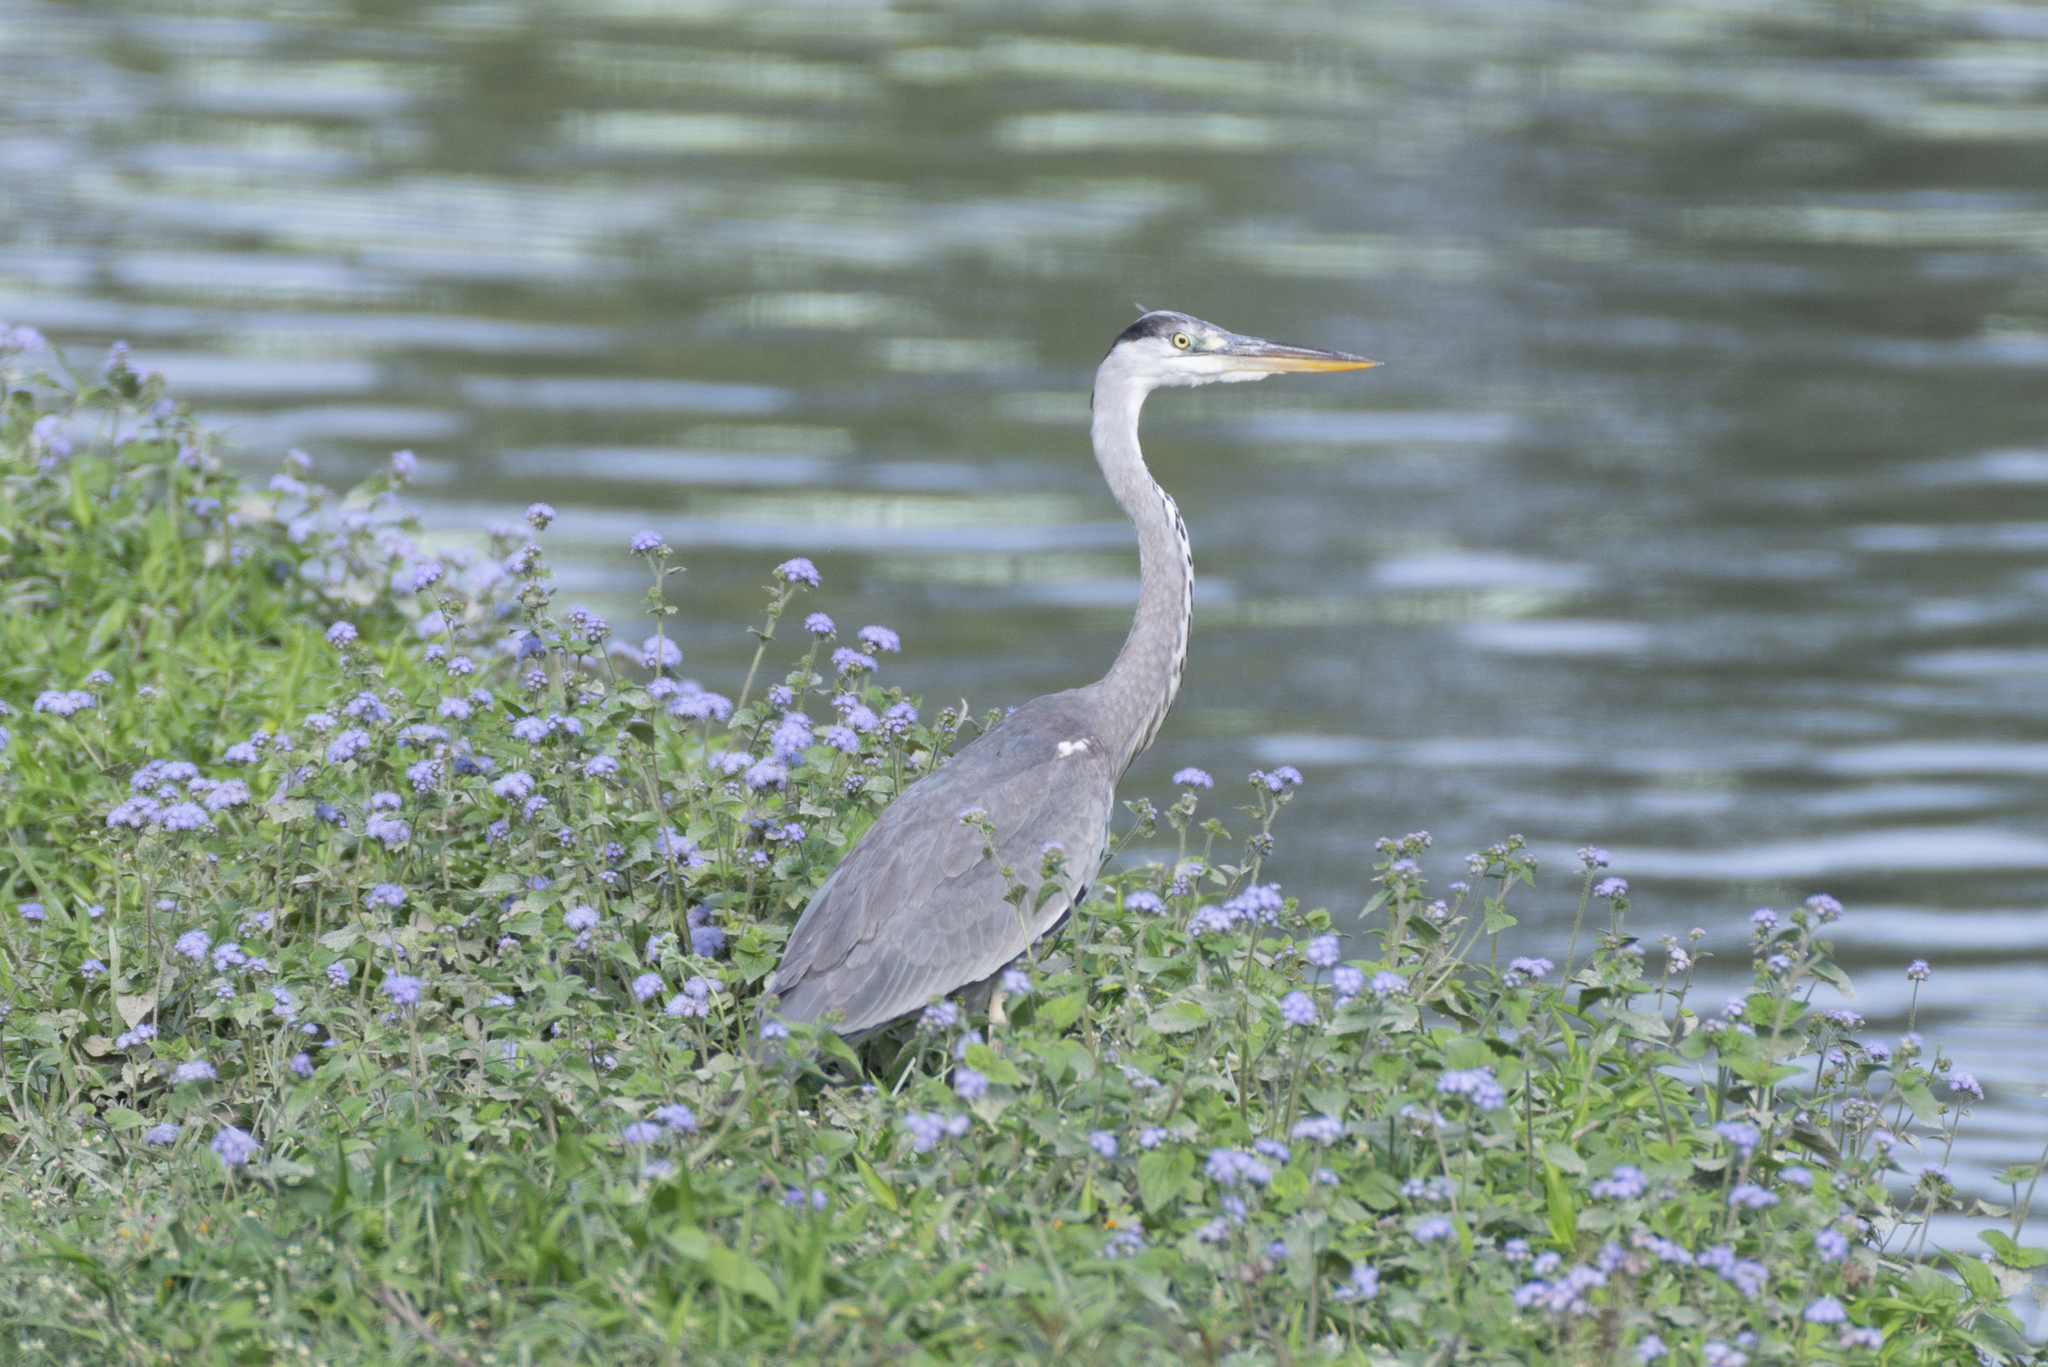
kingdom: Animalia
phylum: Chordata
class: Aves
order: Pelecaniformes
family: Ardeidae
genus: Ardea
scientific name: Ardea cinerea
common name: Grey heron
